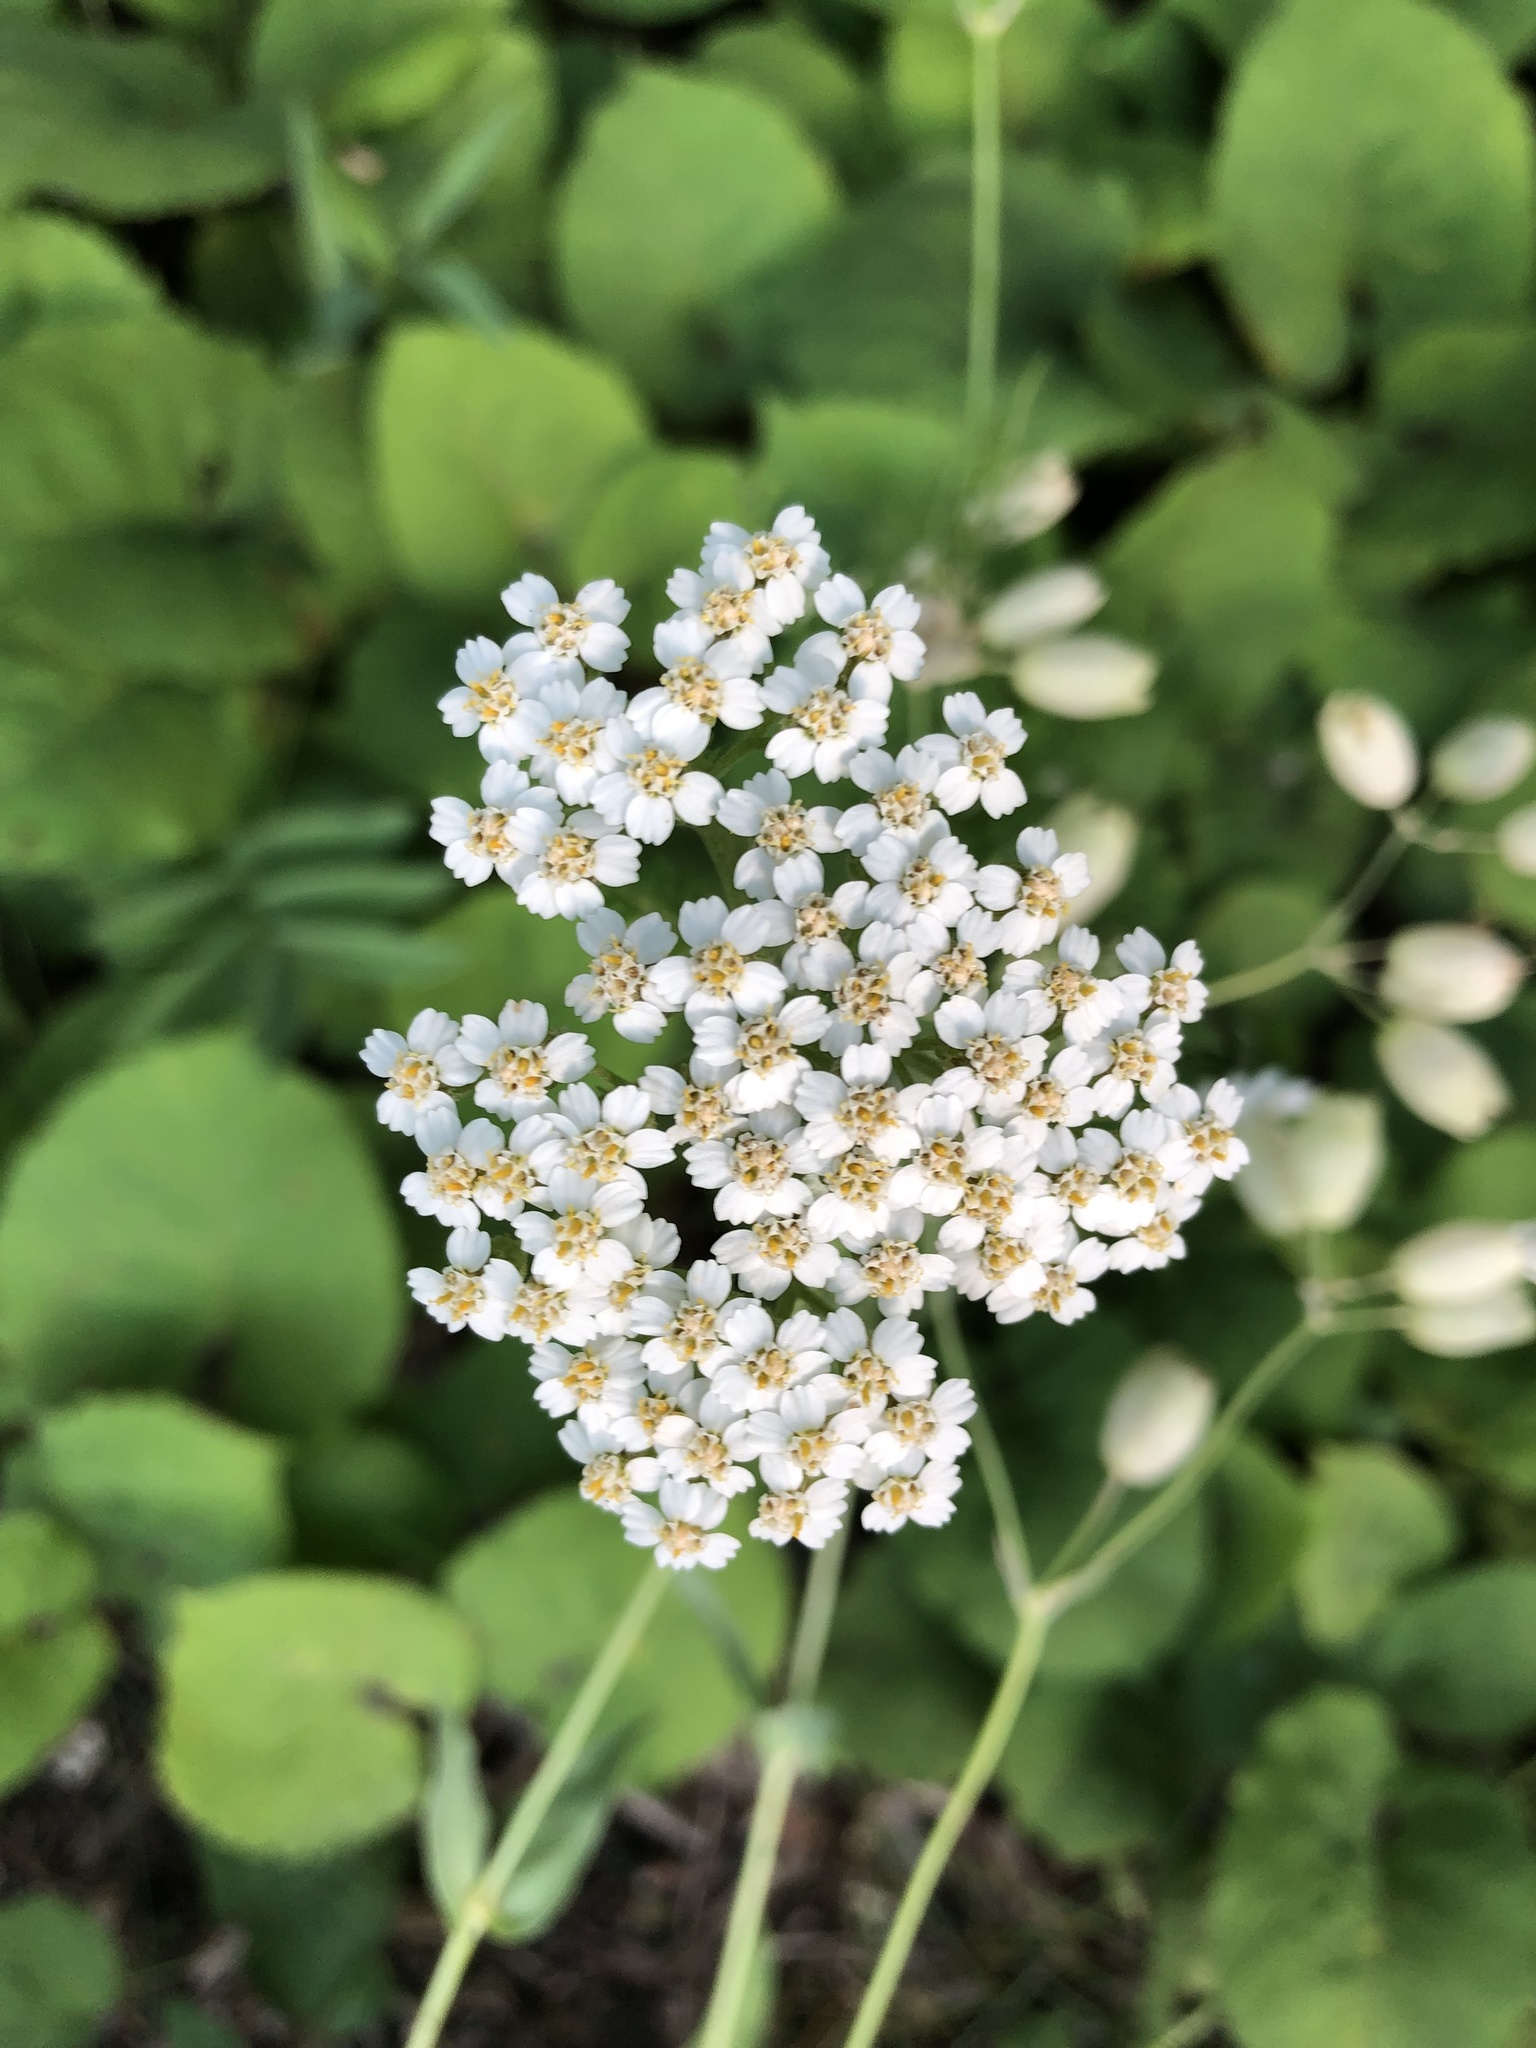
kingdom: Plantae
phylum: Tracheophyta
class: Magnoliopsida
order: Asterales
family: Asteraceae
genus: Achillea
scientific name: Achillea millefolium
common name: Yarrow
